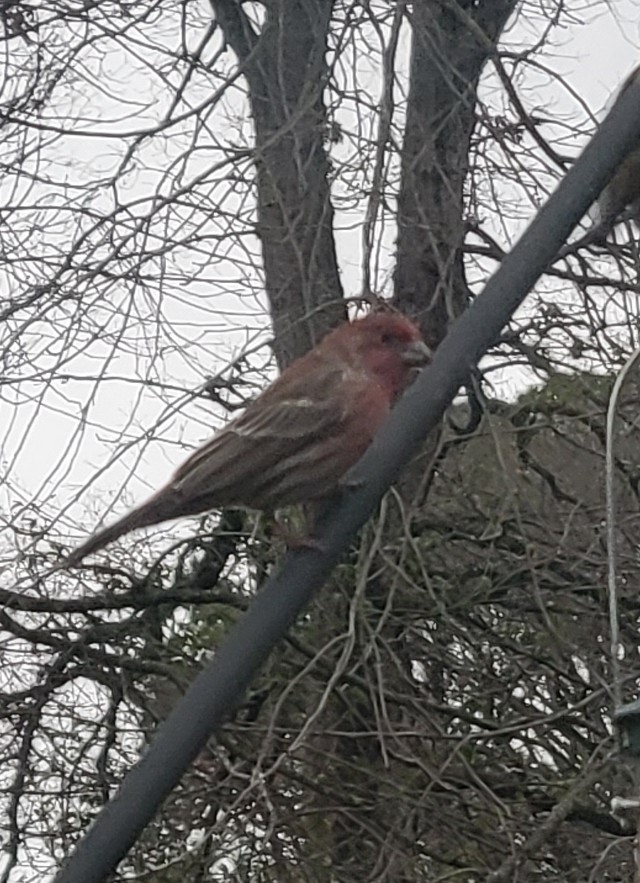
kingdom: Animalia
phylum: Chordata
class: Aves
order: Passeriformes
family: Fringillidae
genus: Haemorhous
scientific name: Haemorhous mexicanus
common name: House finch
